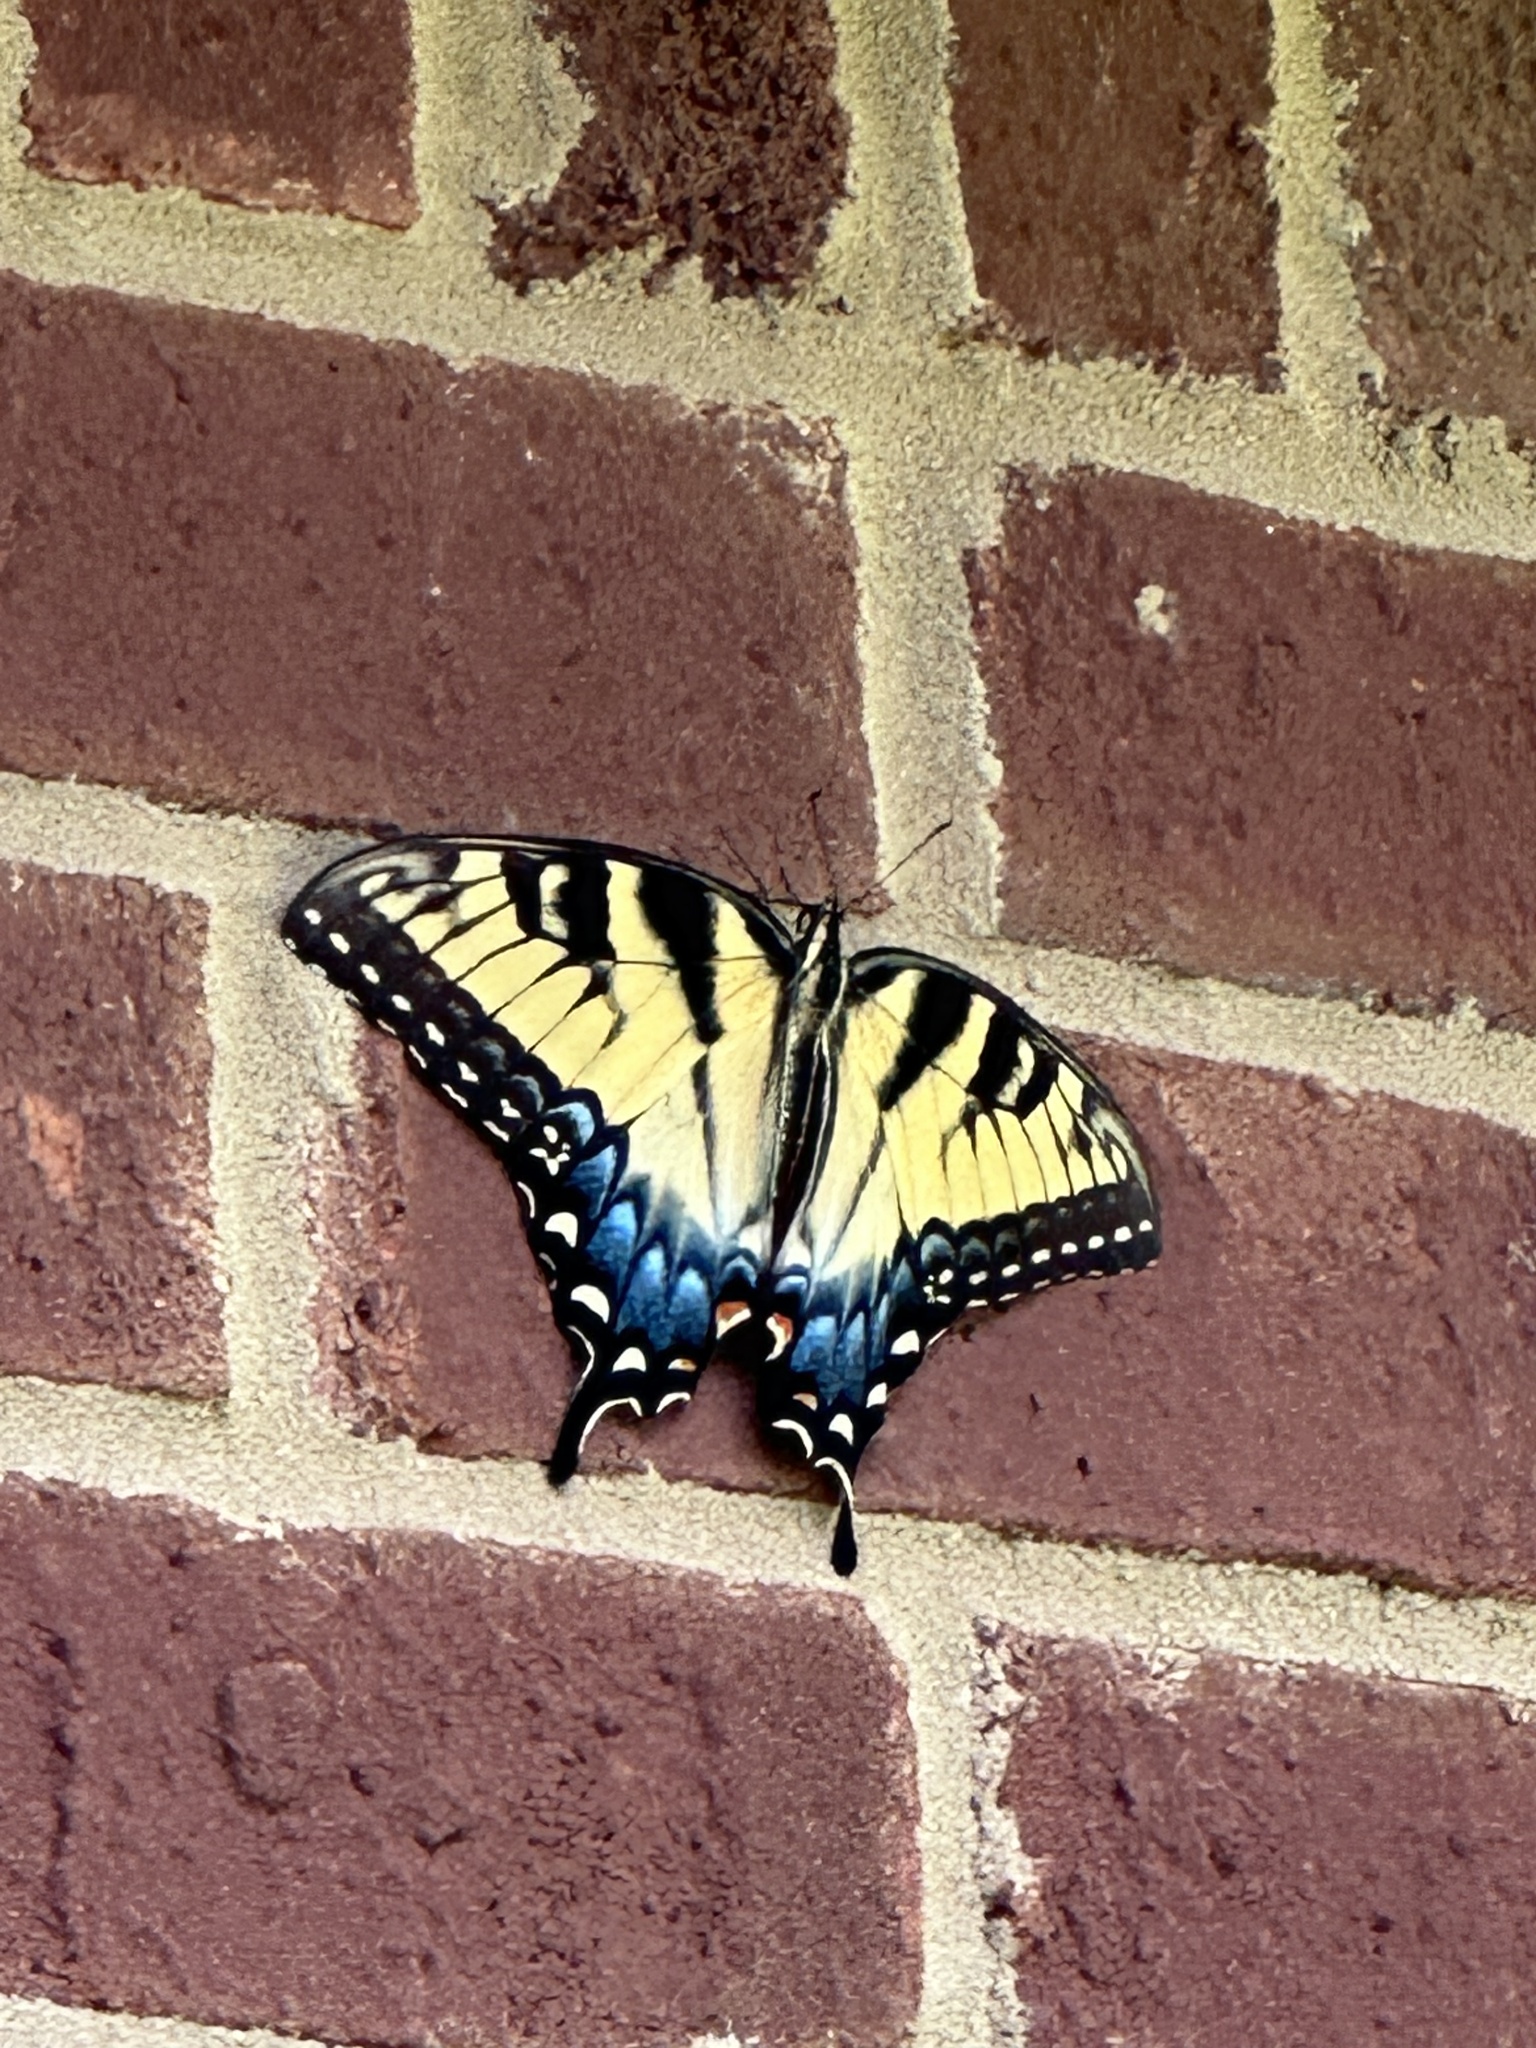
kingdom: Animalia
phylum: Arthropoda
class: Insecta
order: Lepidoptera
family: Papilionidae
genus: Papilio
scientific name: Papilio glaucus
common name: Tiger swallowtail
